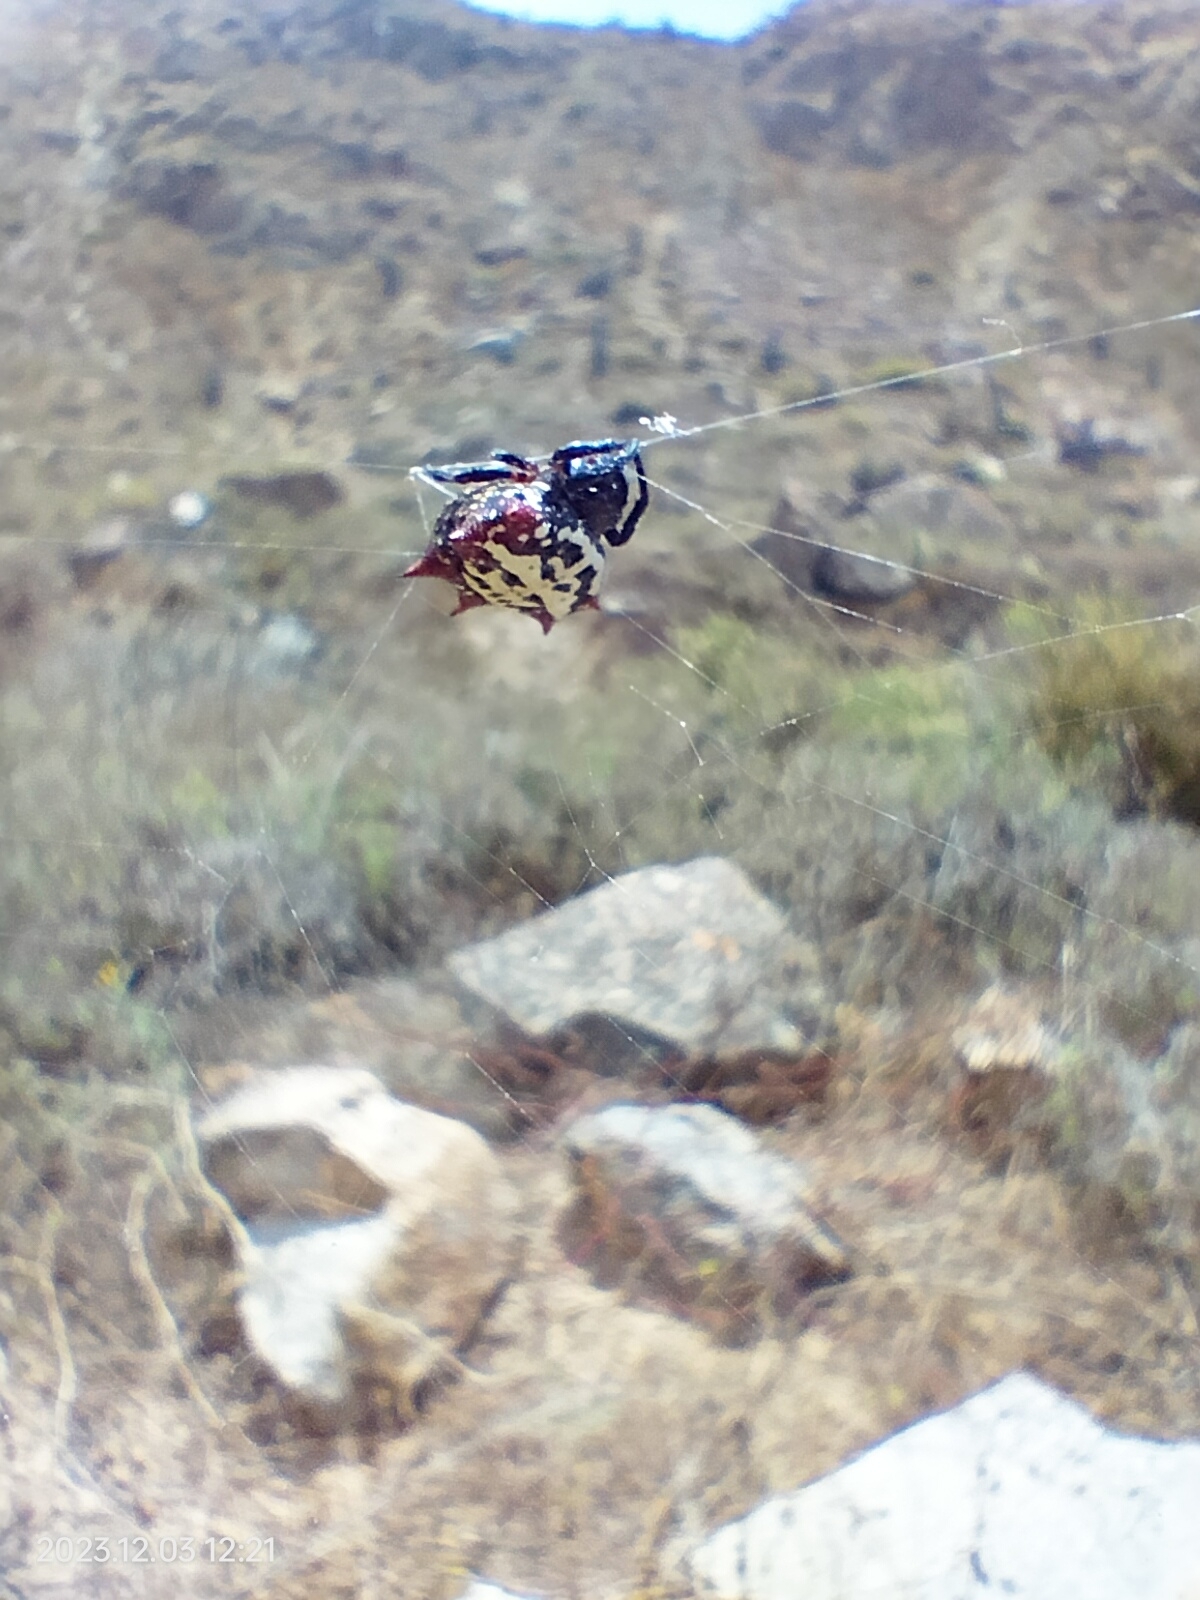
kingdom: Animalia
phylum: Arthropoda
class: Arachnida
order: Araneae
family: Araneidae
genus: Gasteracantha
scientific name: Gasteracantha cancriformis
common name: Orb weavers
